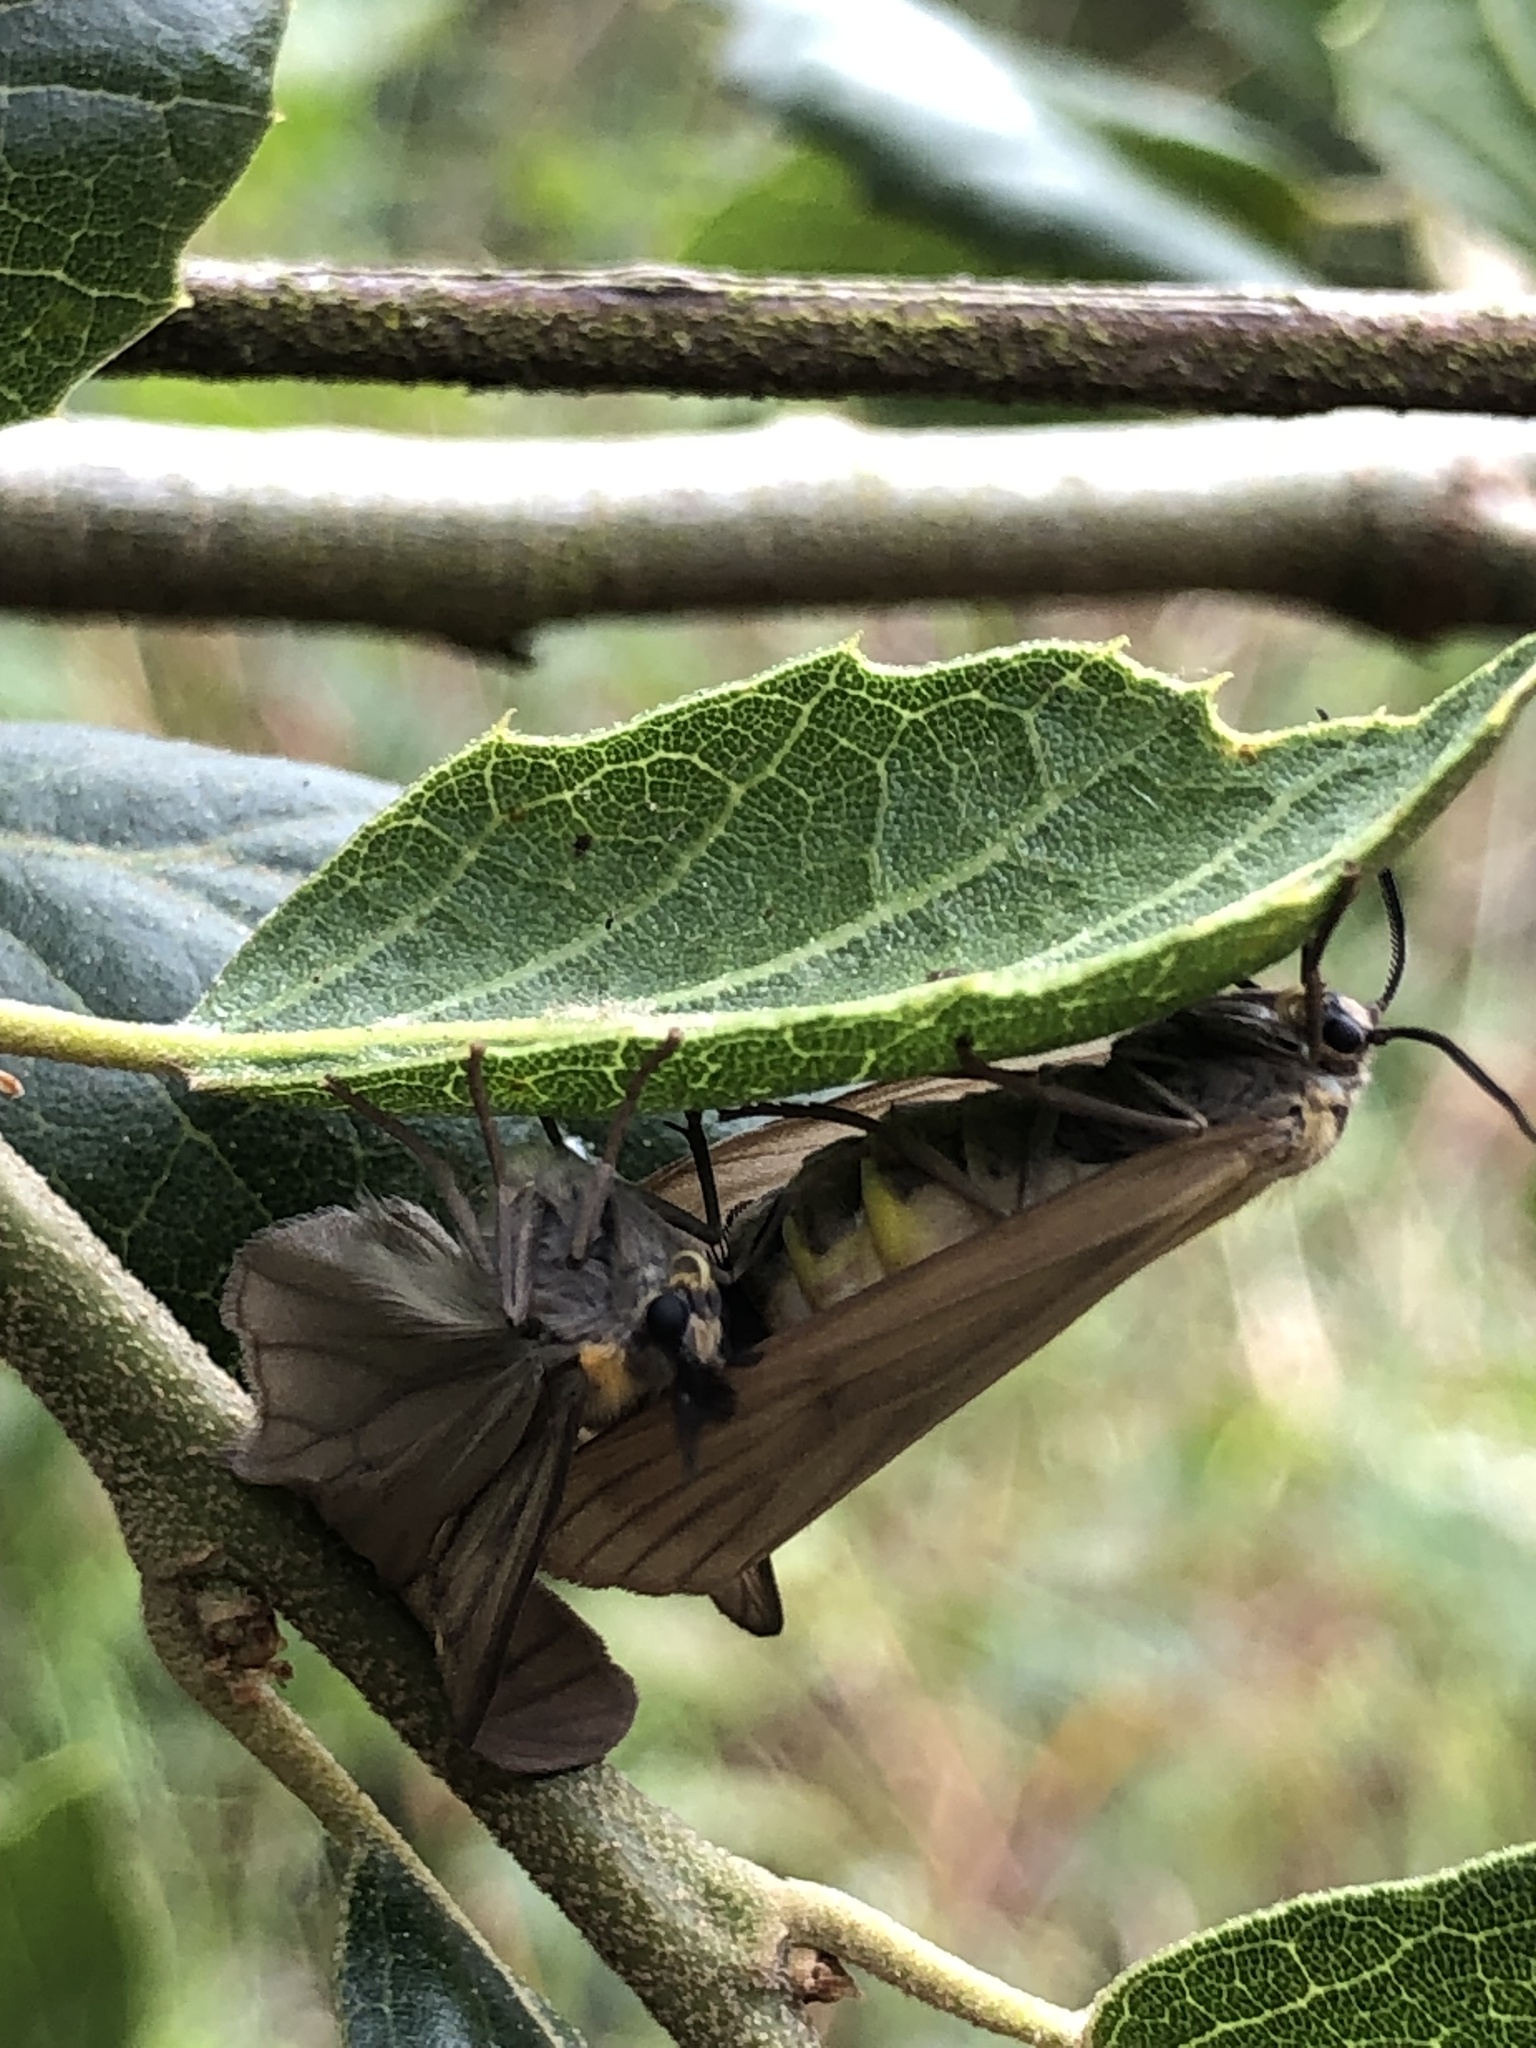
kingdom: Animalia
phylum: Arthropoda
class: Insecta
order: Lepidoptera
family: Notodontidae
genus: Phryganidia
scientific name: Phryganidia californica
